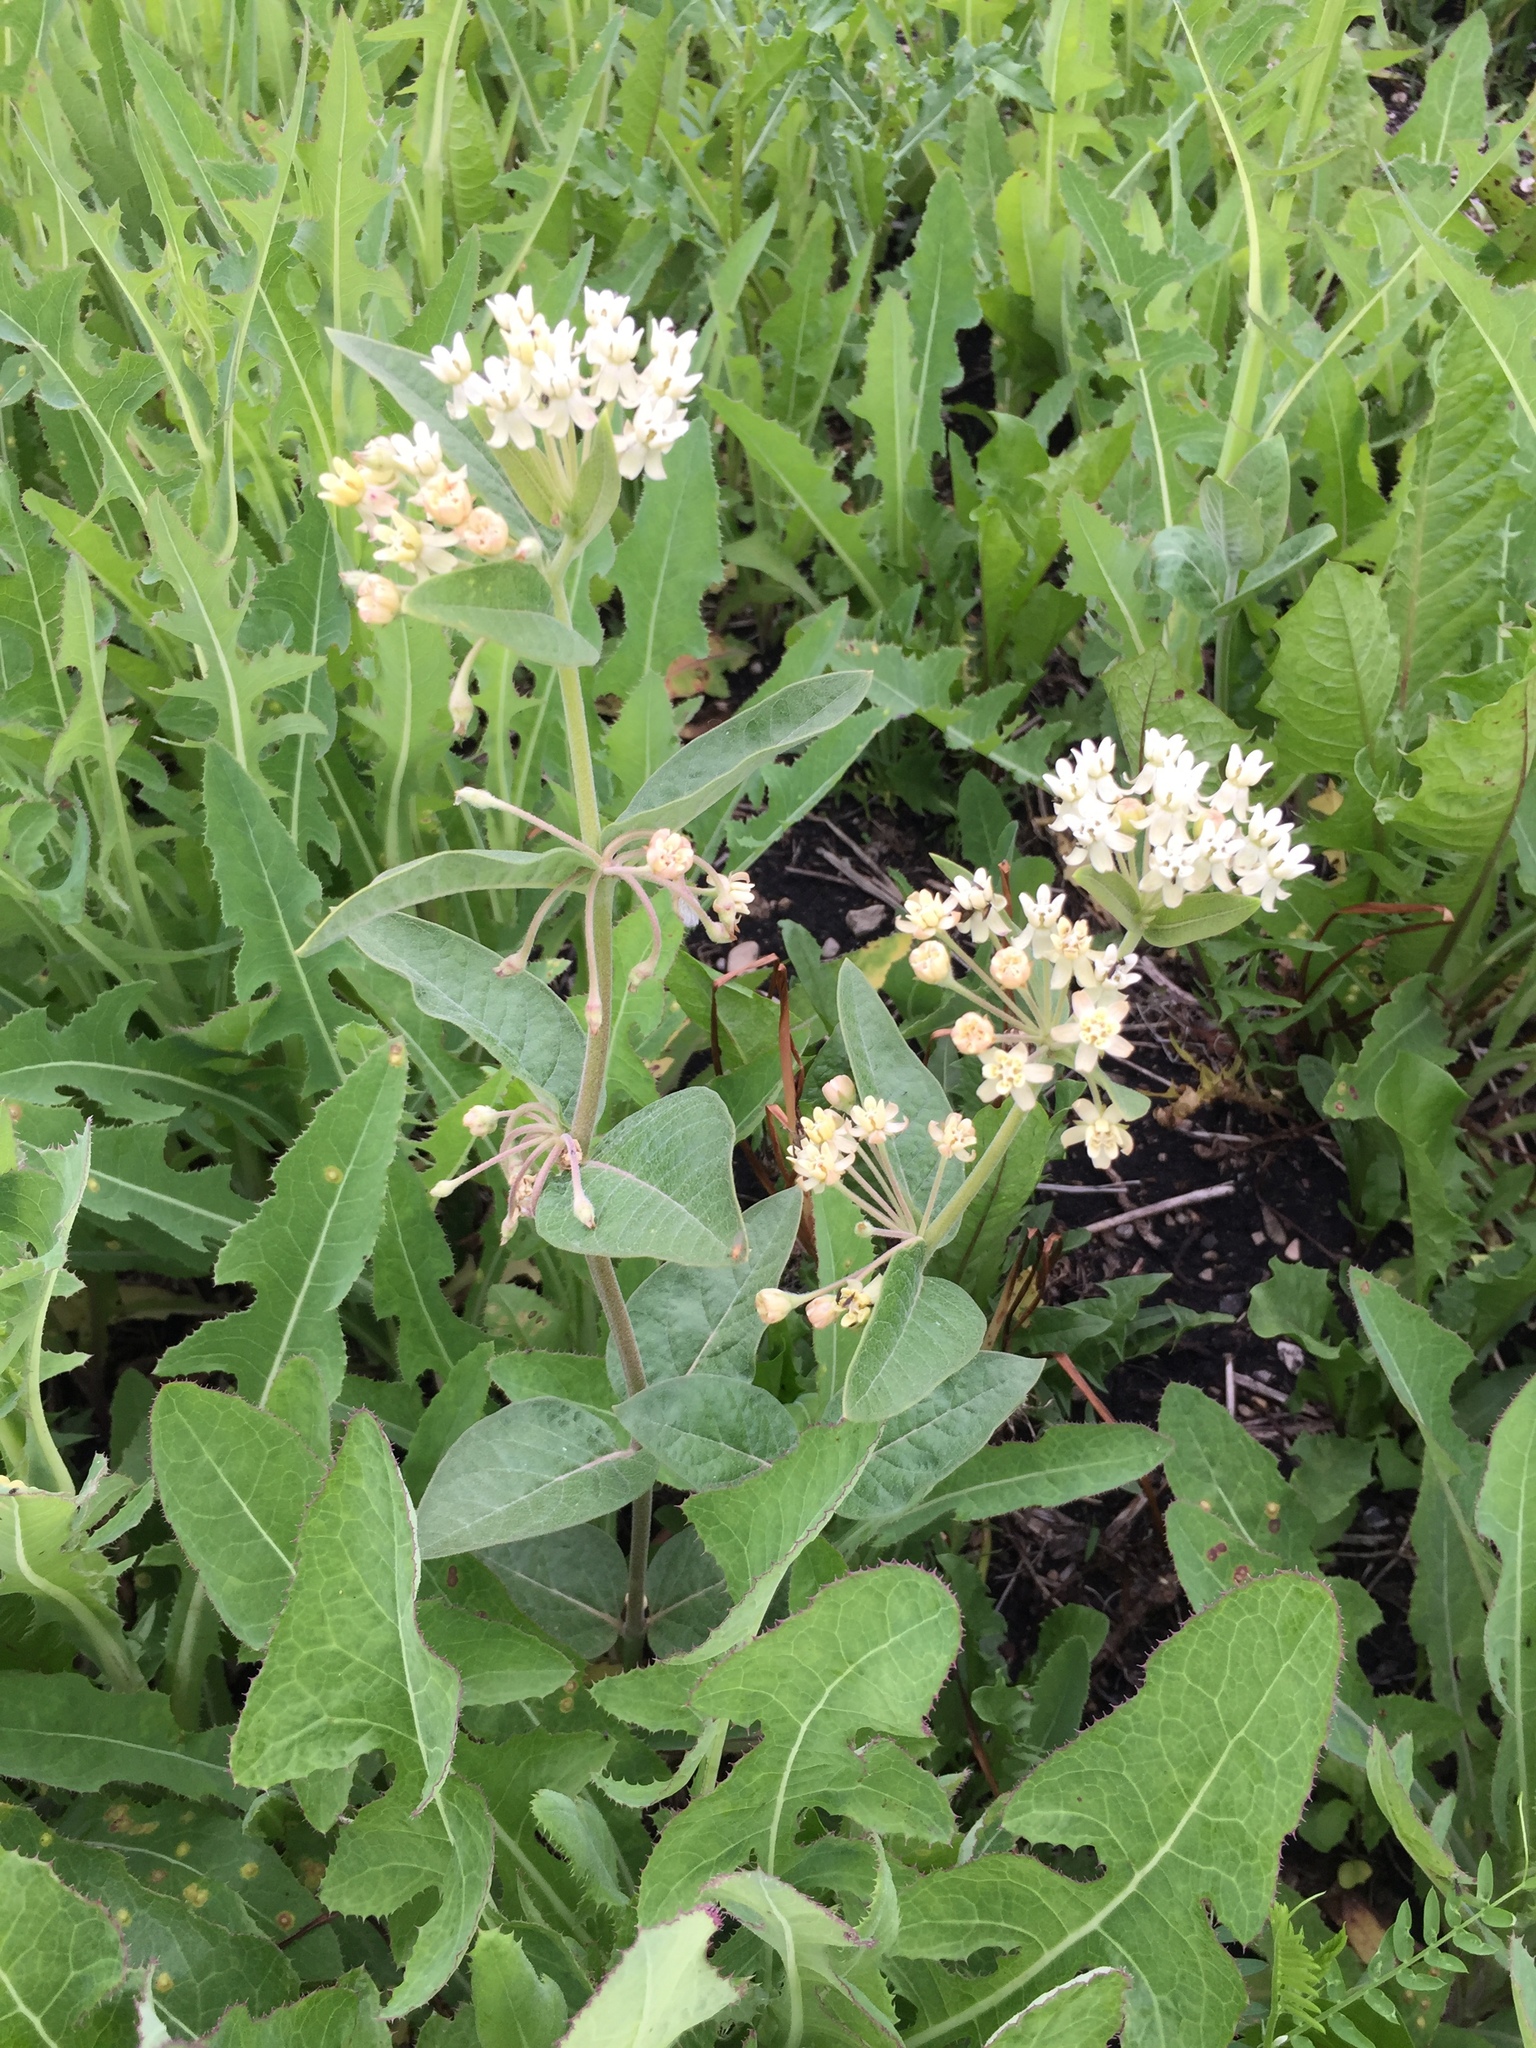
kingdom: Plantae
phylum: Tracheophyta
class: Magnoliopsida
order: Gentianales
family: Apocynaceae
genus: Asclepias
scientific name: Asclepias ovalifolia
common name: Dwarf milkweed
